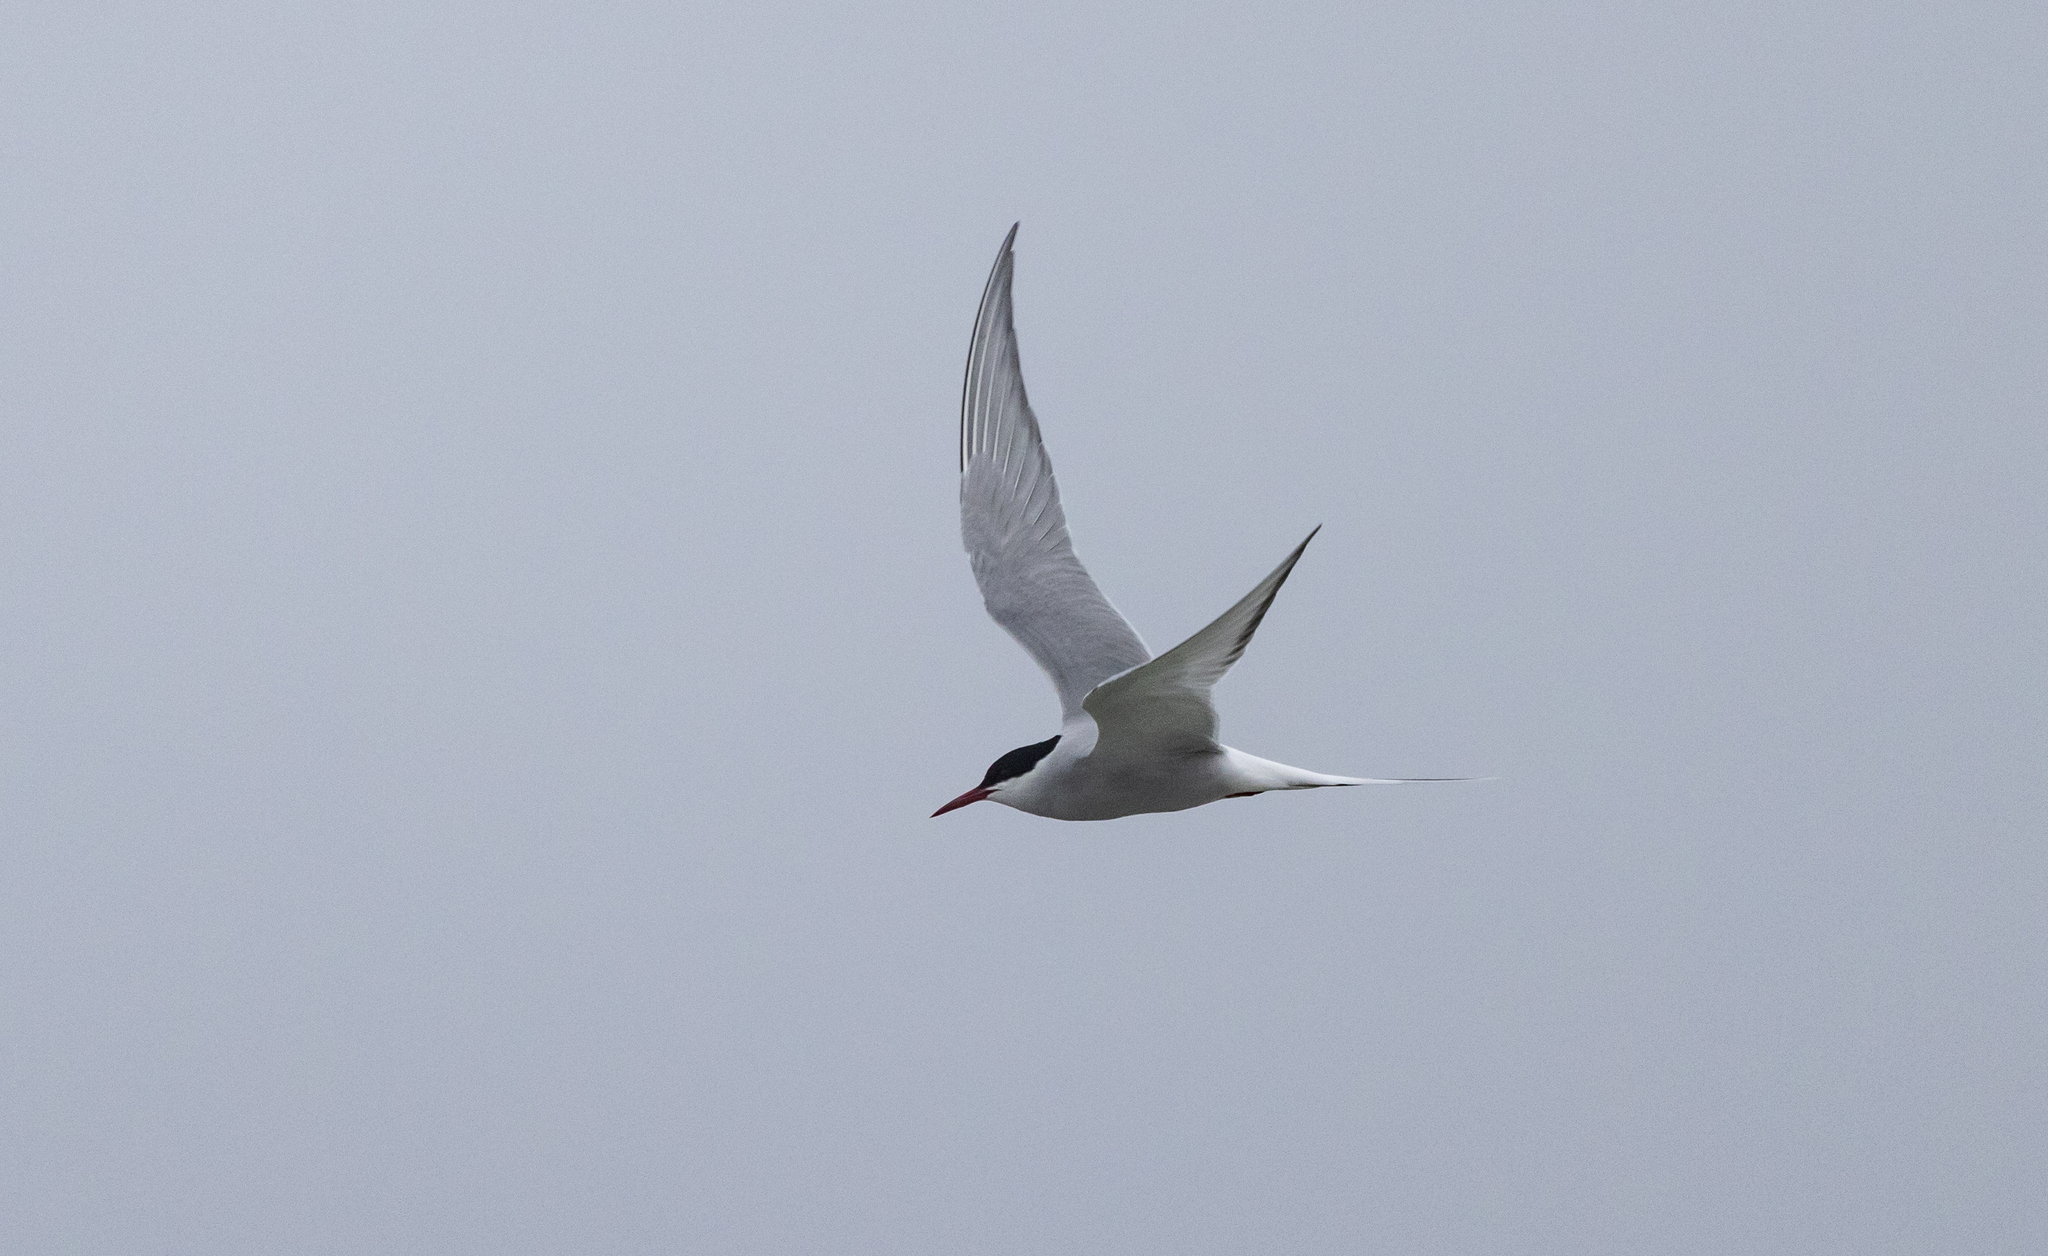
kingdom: Animalia
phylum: Chordata
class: Aves
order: Charadriiformes
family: Laridae
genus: Sterna
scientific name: Sterna paradisaea
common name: Arctic tern
